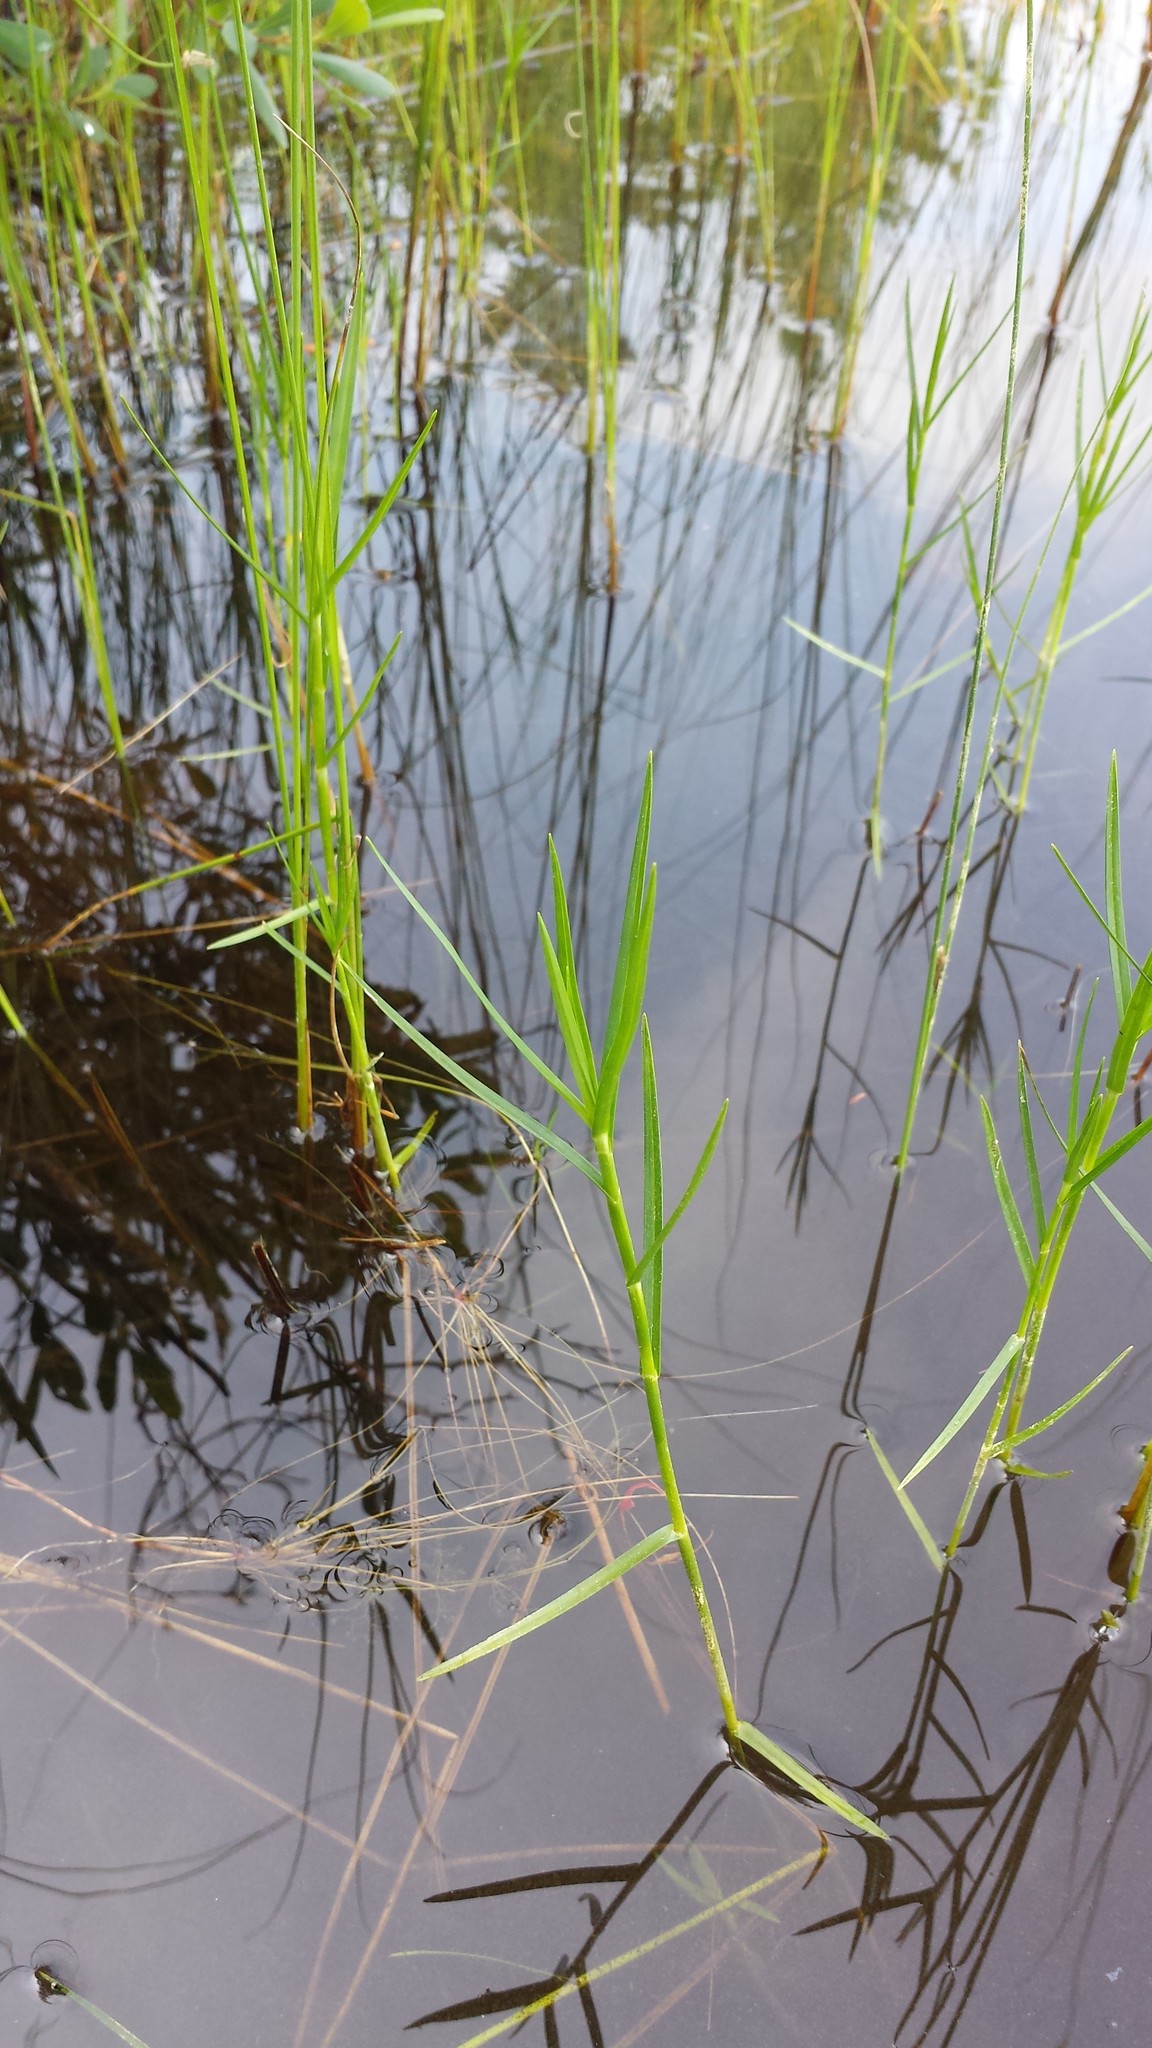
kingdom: Plantae
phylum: Tracheophyta
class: Liliopsida
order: Poales
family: Cyperaceae
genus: Dulichium
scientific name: Dulichium arundinaceum
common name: Three-way sedge
